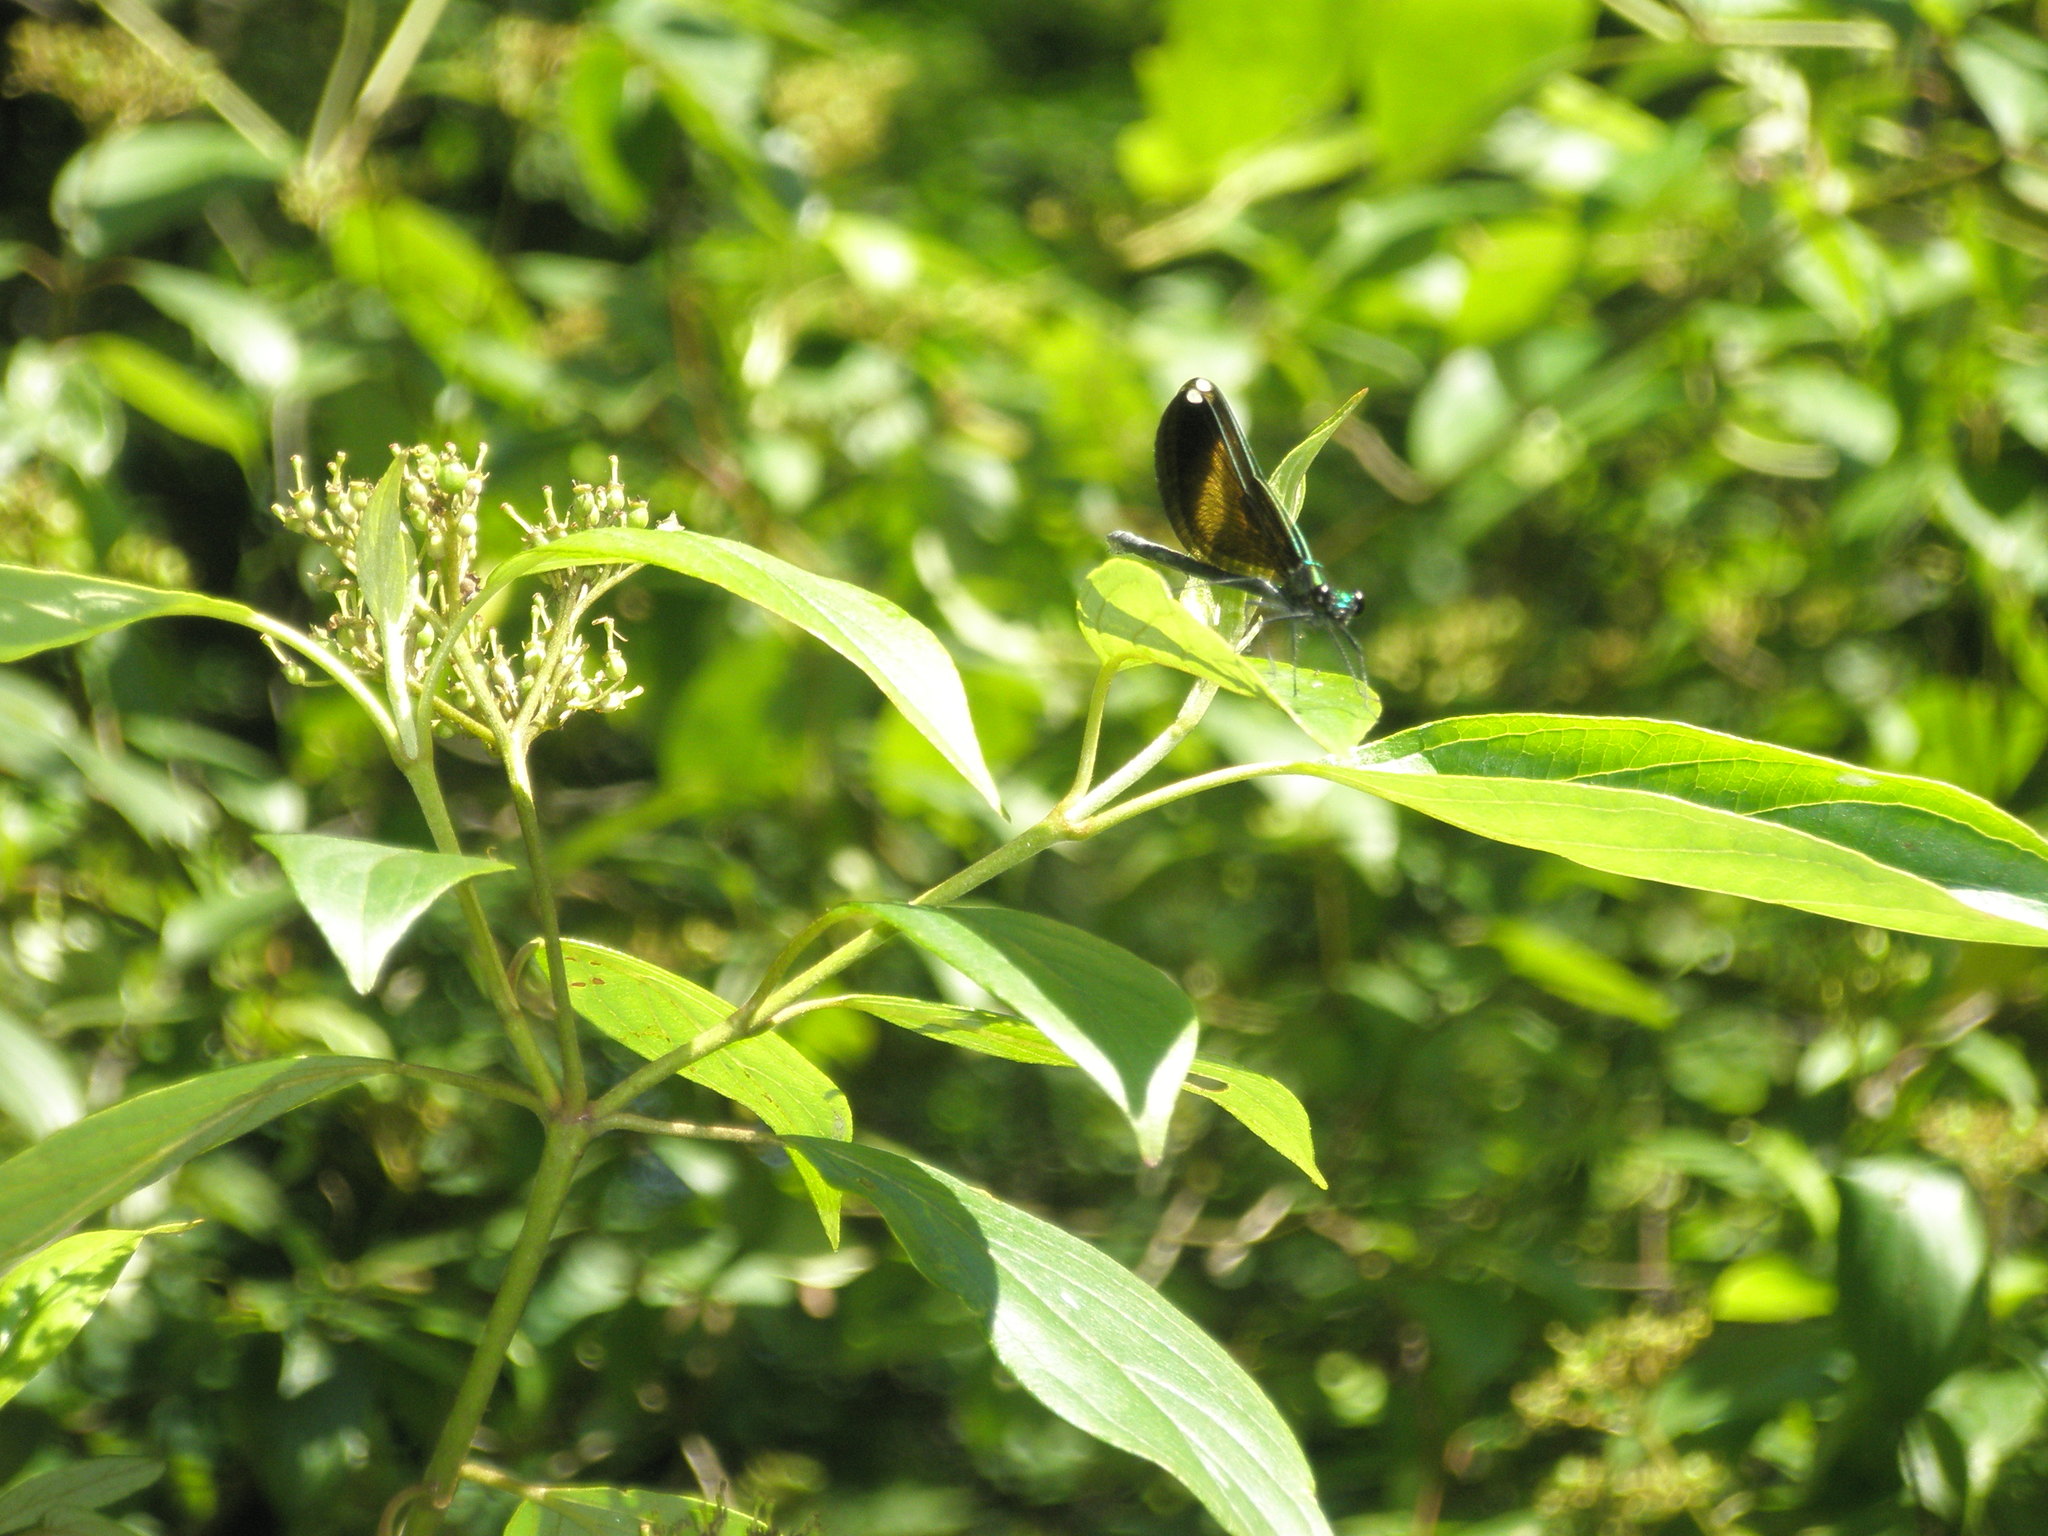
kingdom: Animalia
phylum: Arthropoda
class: Insecta
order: Odonata
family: Calopterygidae
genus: Calopteryx
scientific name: Calopteryx maculata
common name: Ebony jewelwing
